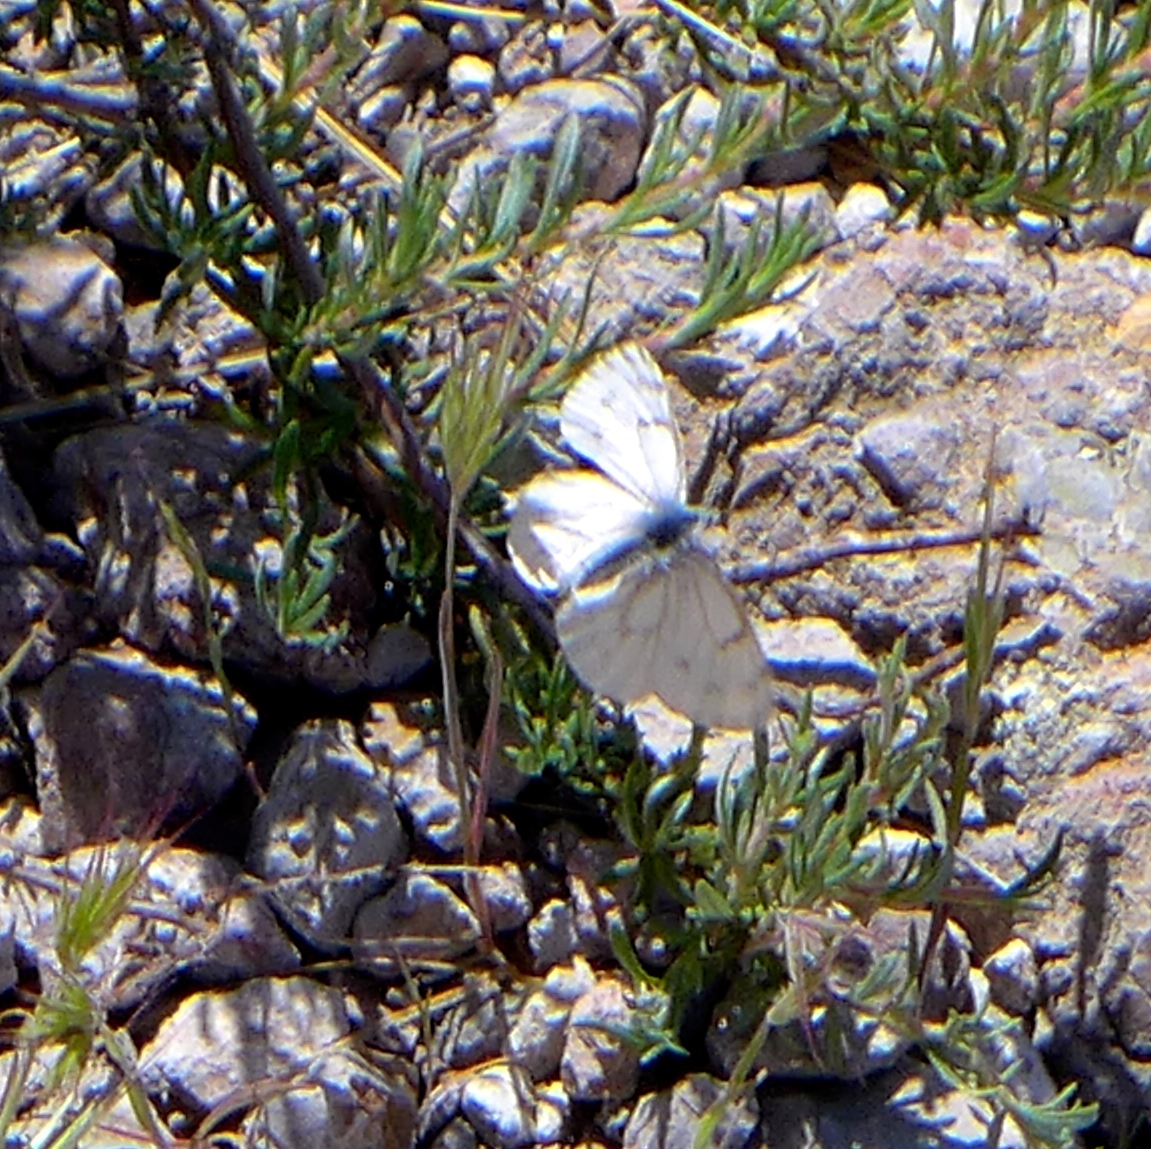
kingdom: Animalia
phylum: Arthropoda
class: Insecta
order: Lepidoptera
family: Pieridae
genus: Pontia
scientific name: Pontia sisymbrii
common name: California white
